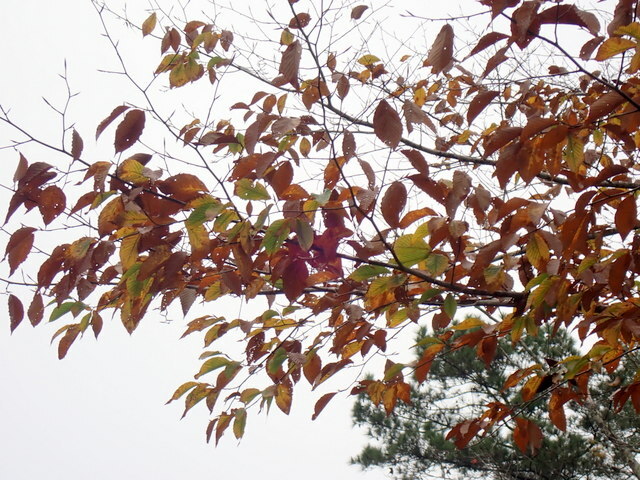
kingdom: Plantae
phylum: Tracheophyta
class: Magnoliopsida
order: Fagales
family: Fagaceae
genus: Fagus
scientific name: Fagus grandifolia
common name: American beech
